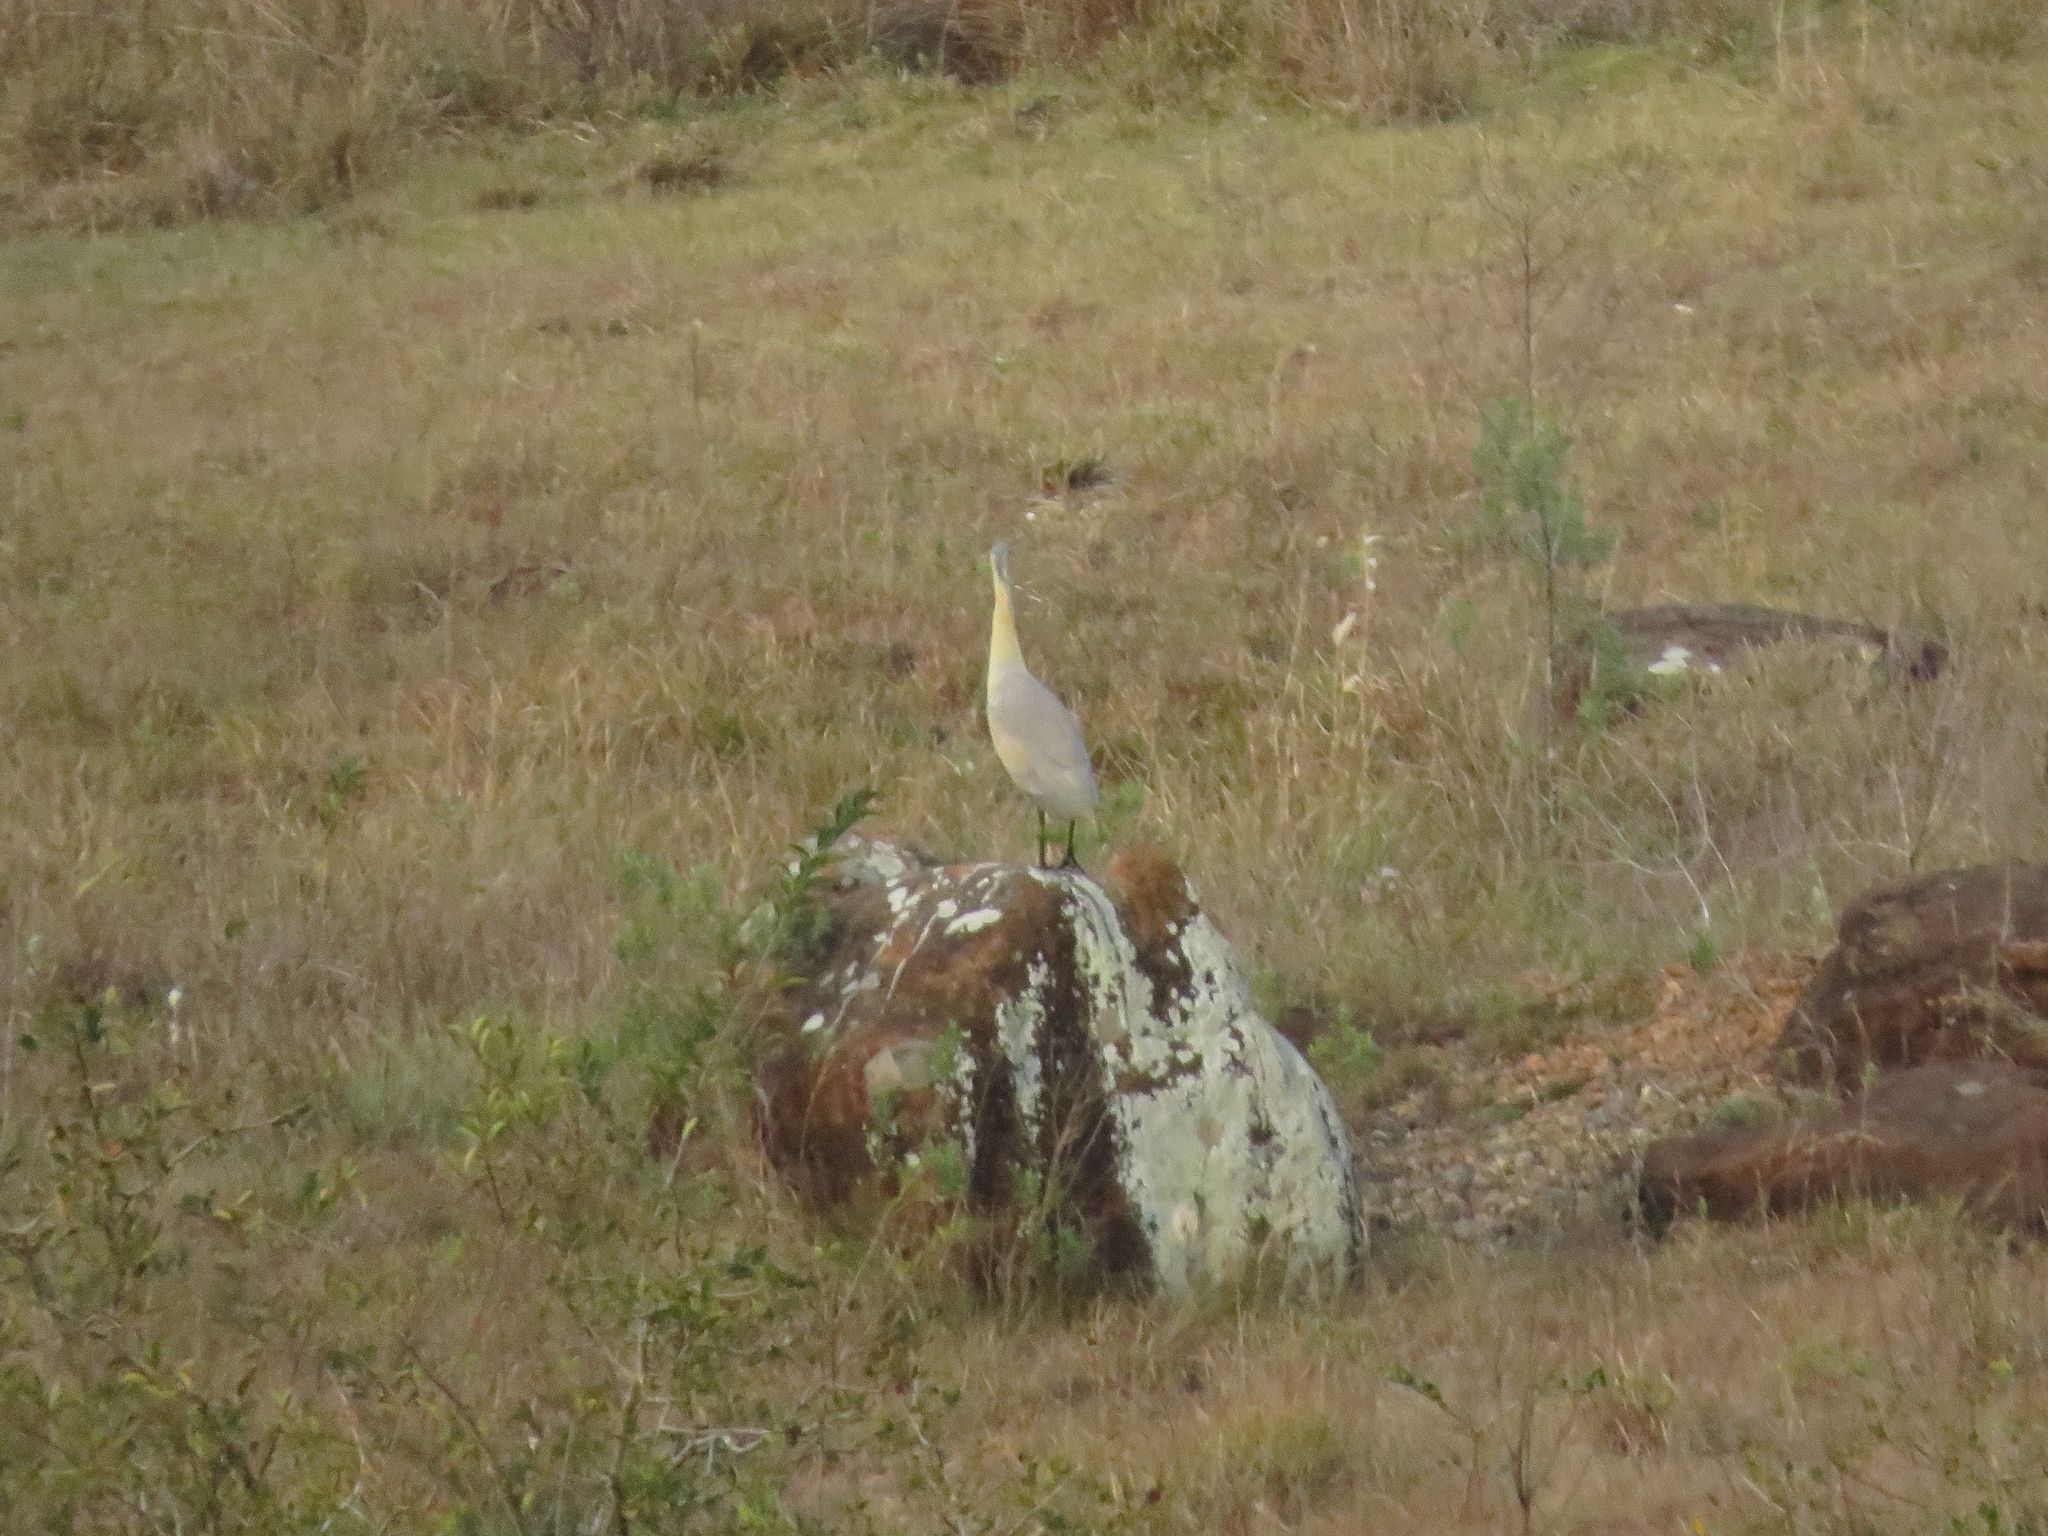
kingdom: Animalia
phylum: Chordata
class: Aves
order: Pelecaniformes
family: Ardeidae
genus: Syrigma
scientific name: Syrigma sibilatrix
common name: Whistling heron
